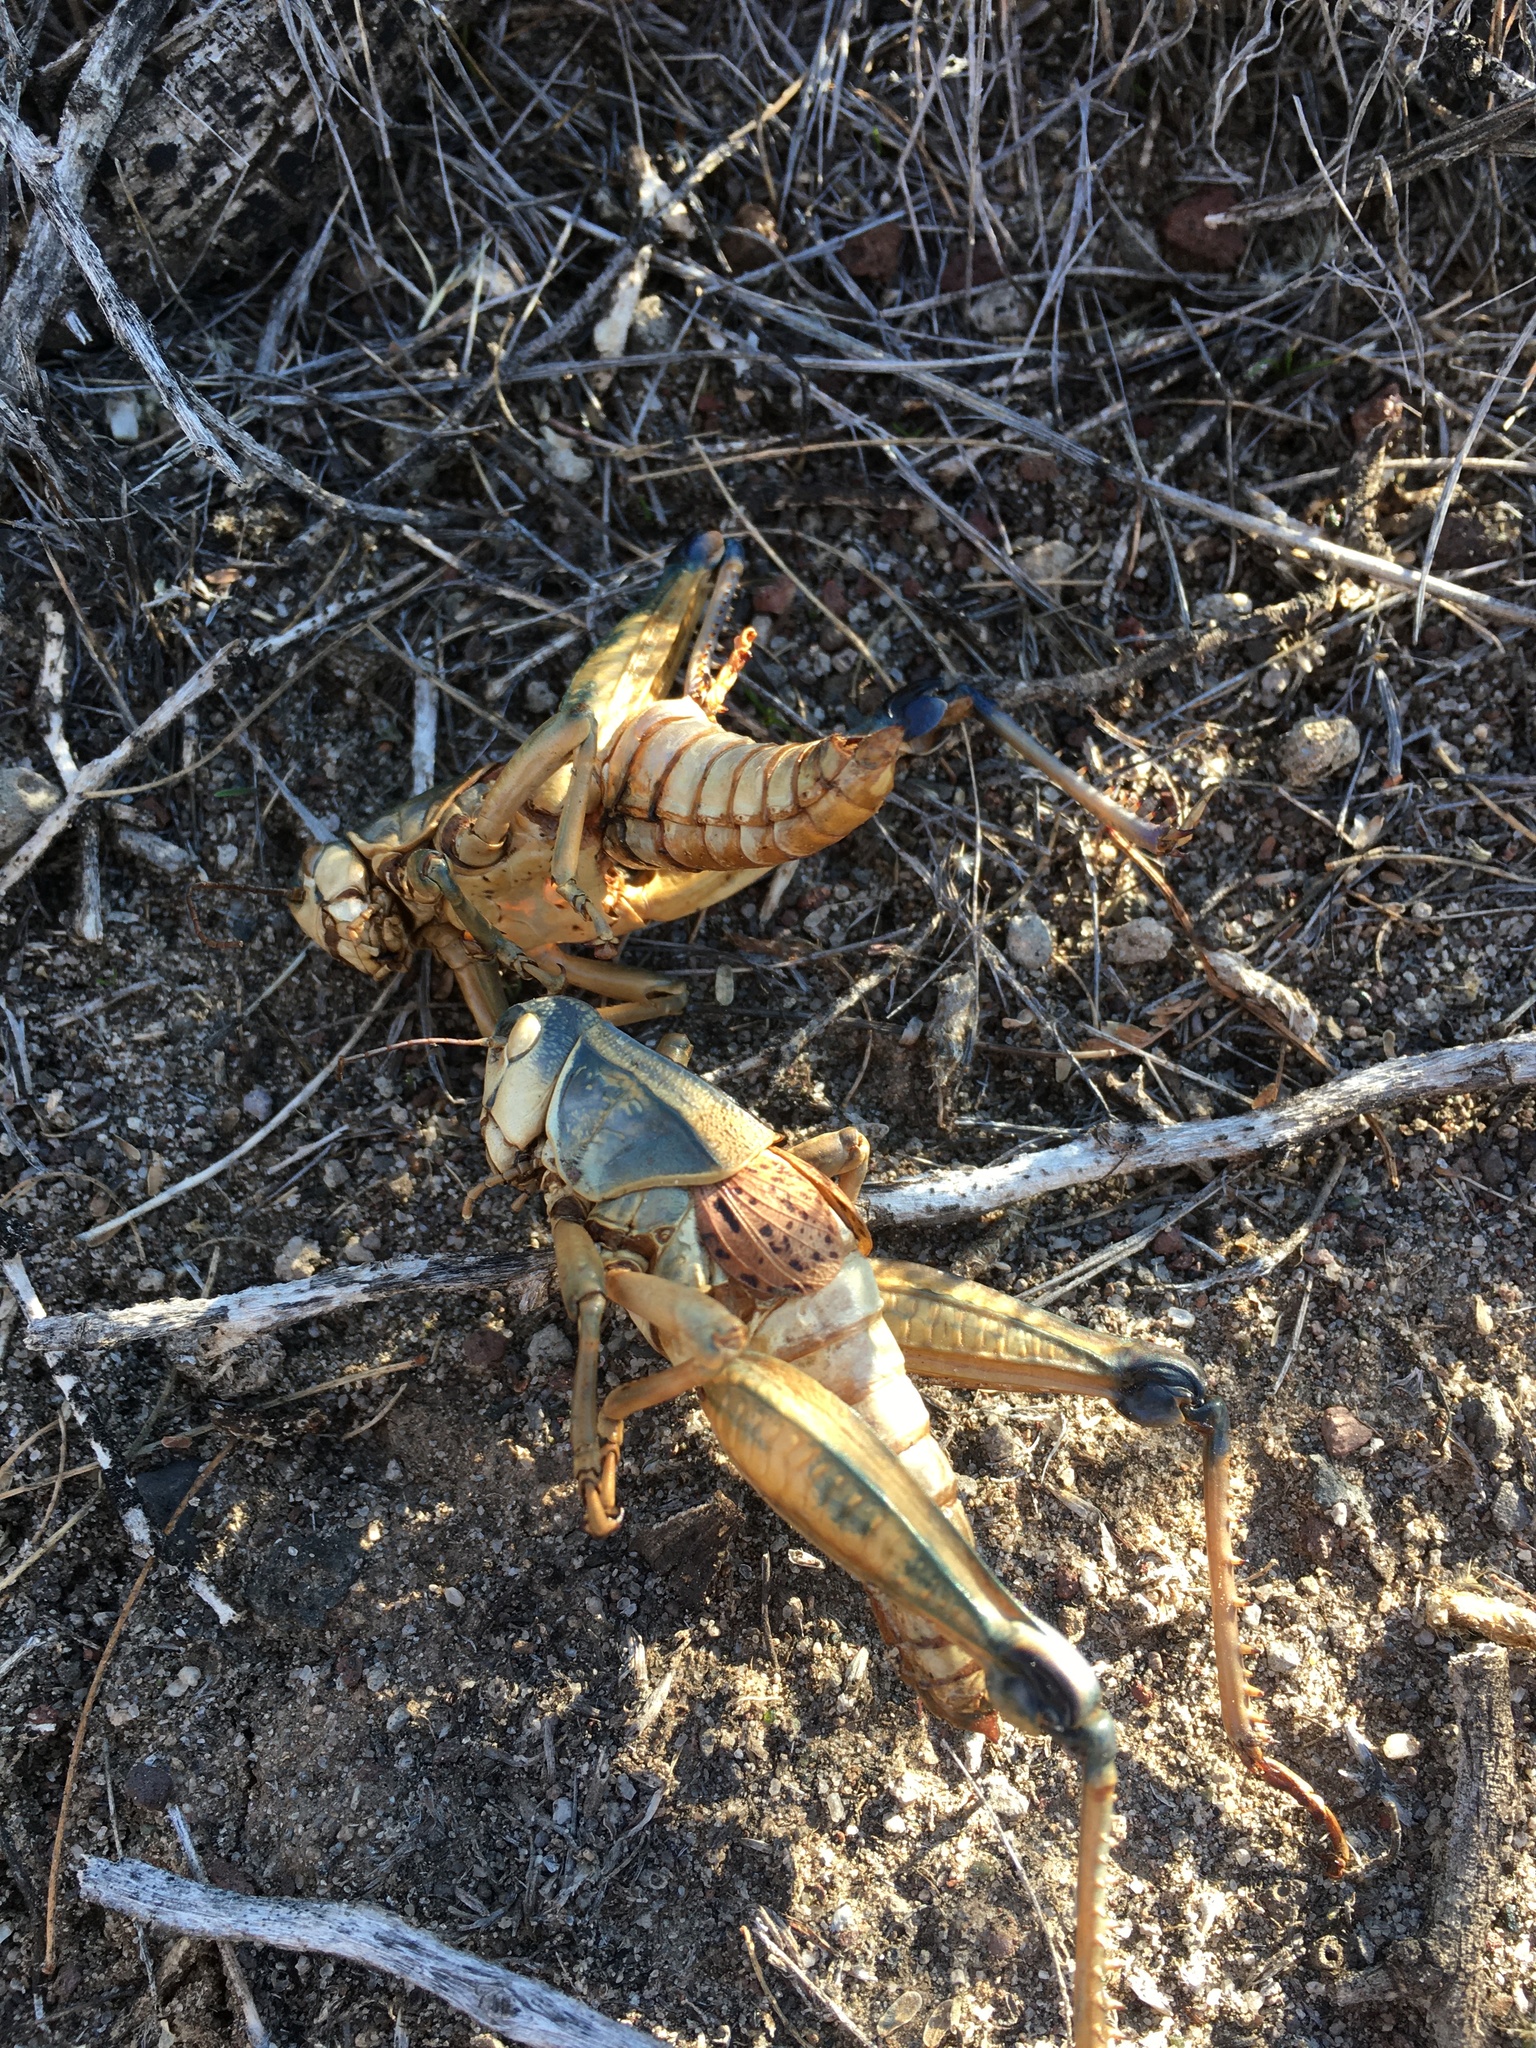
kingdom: Animalia
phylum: Arthropoda
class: Insecta
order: Orthoptera
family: Romaleidae
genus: Brachystola
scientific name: Brachystola magna
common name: Plains lubber grasshopper
